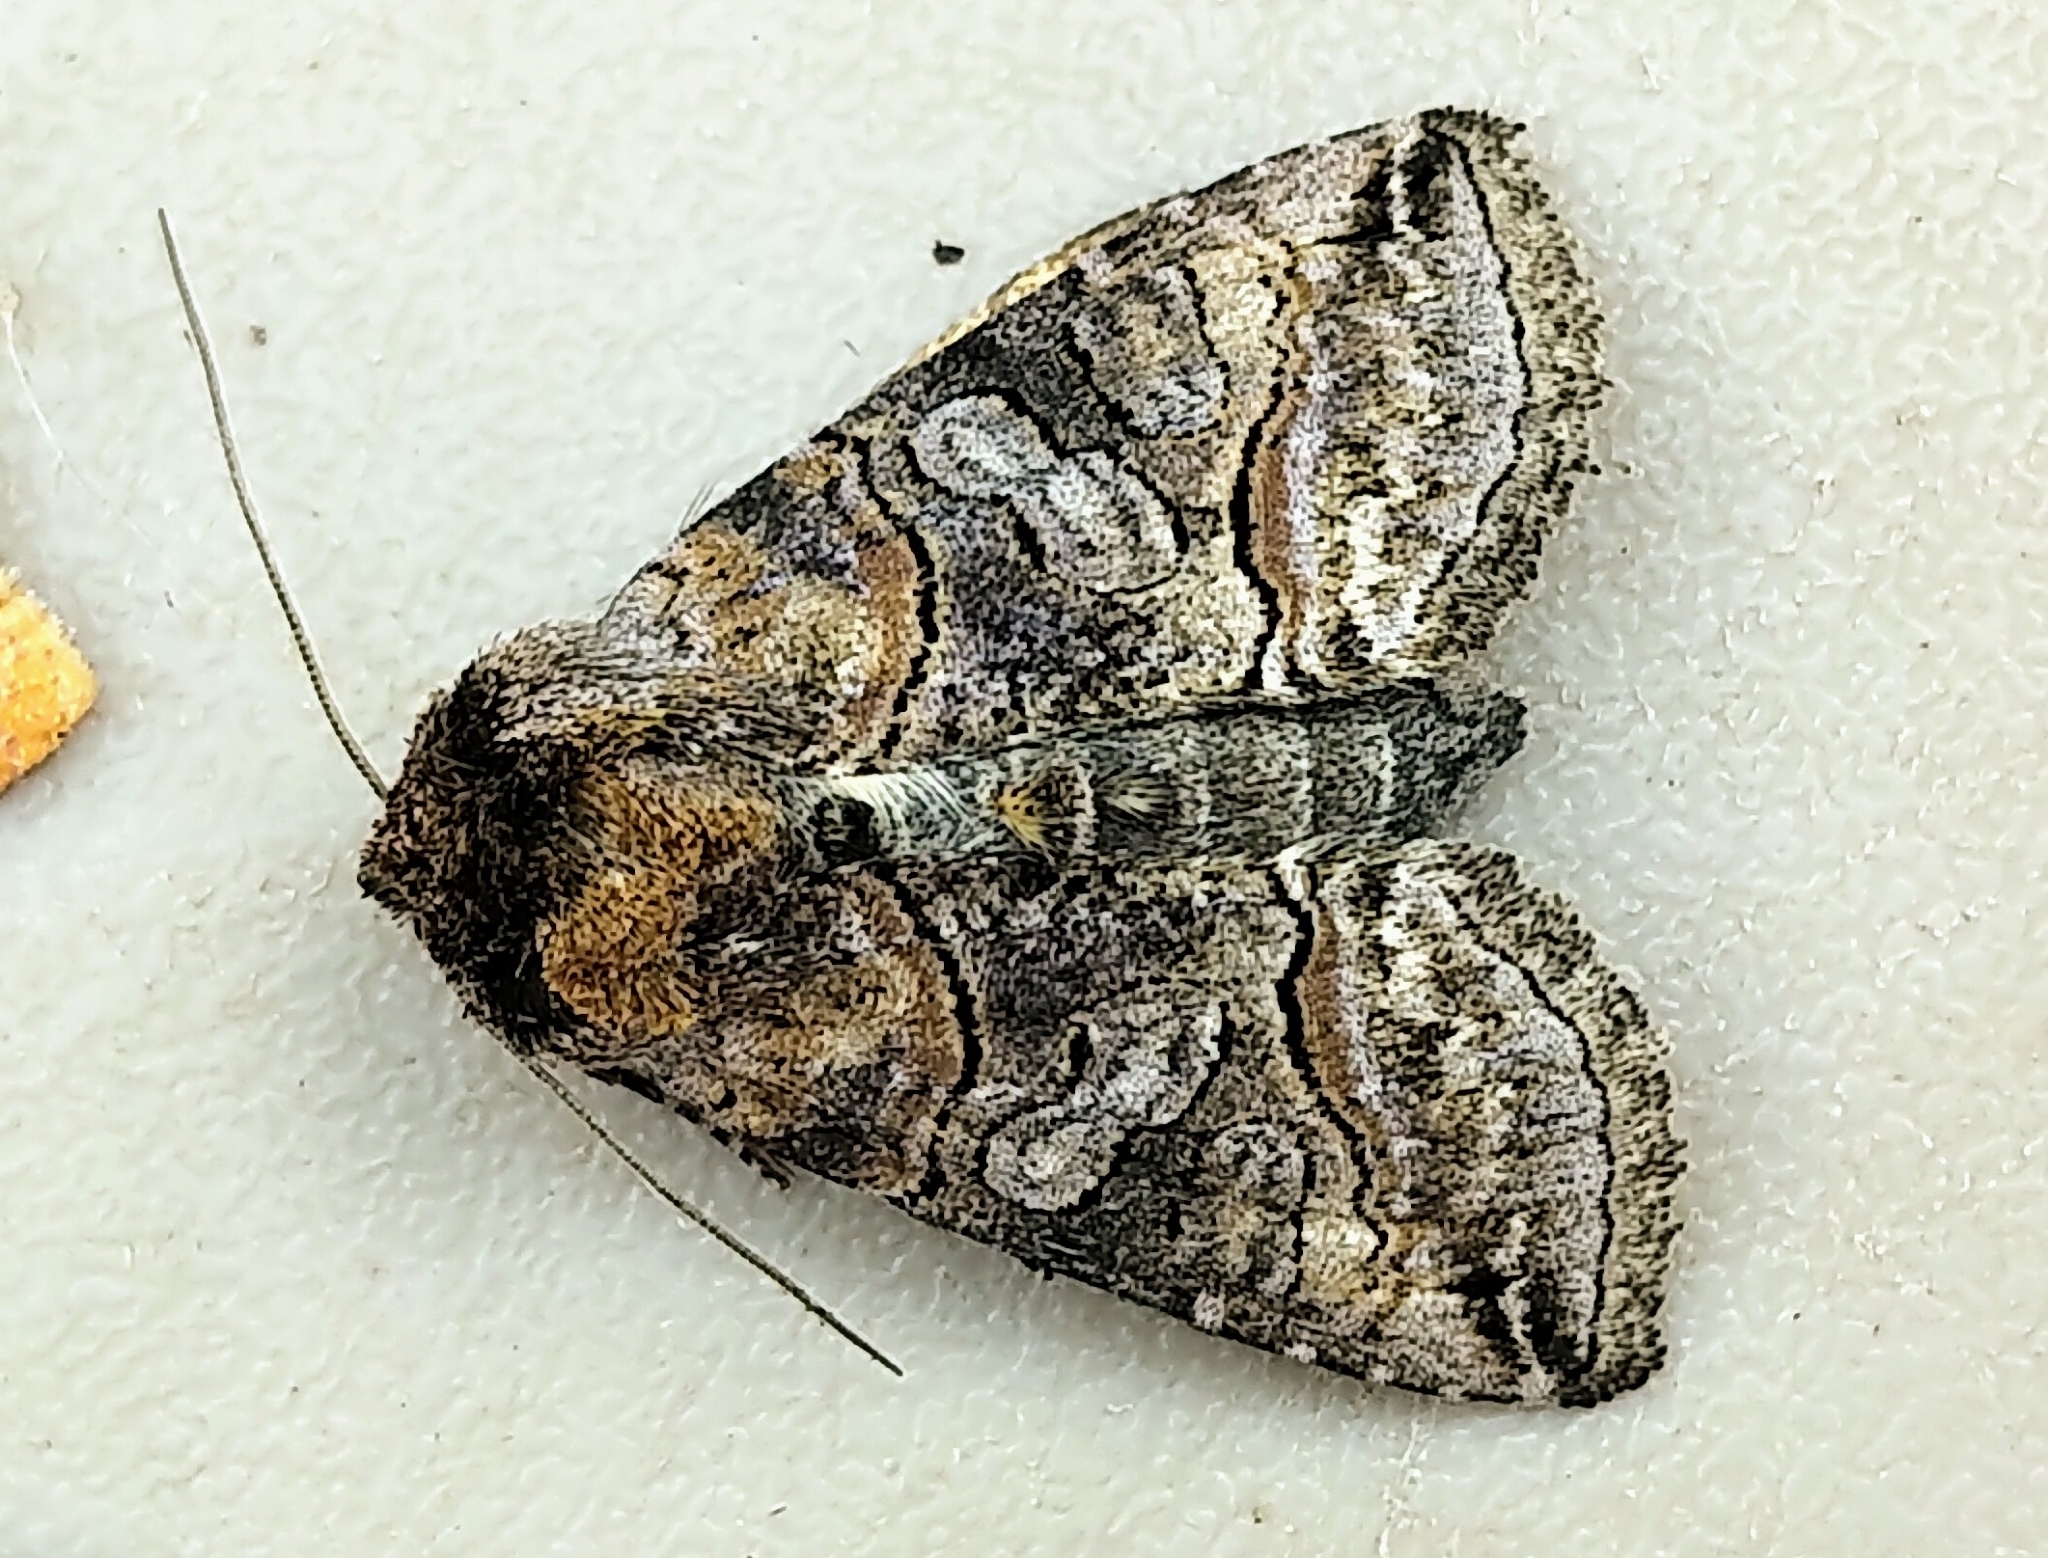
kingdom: Animalia
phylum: Arthropoda
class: Insecta
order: Lepidoptera
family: Noctuidae
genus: Abrostola
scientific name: Abrostola urentis
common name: Spectacled nettle moth
